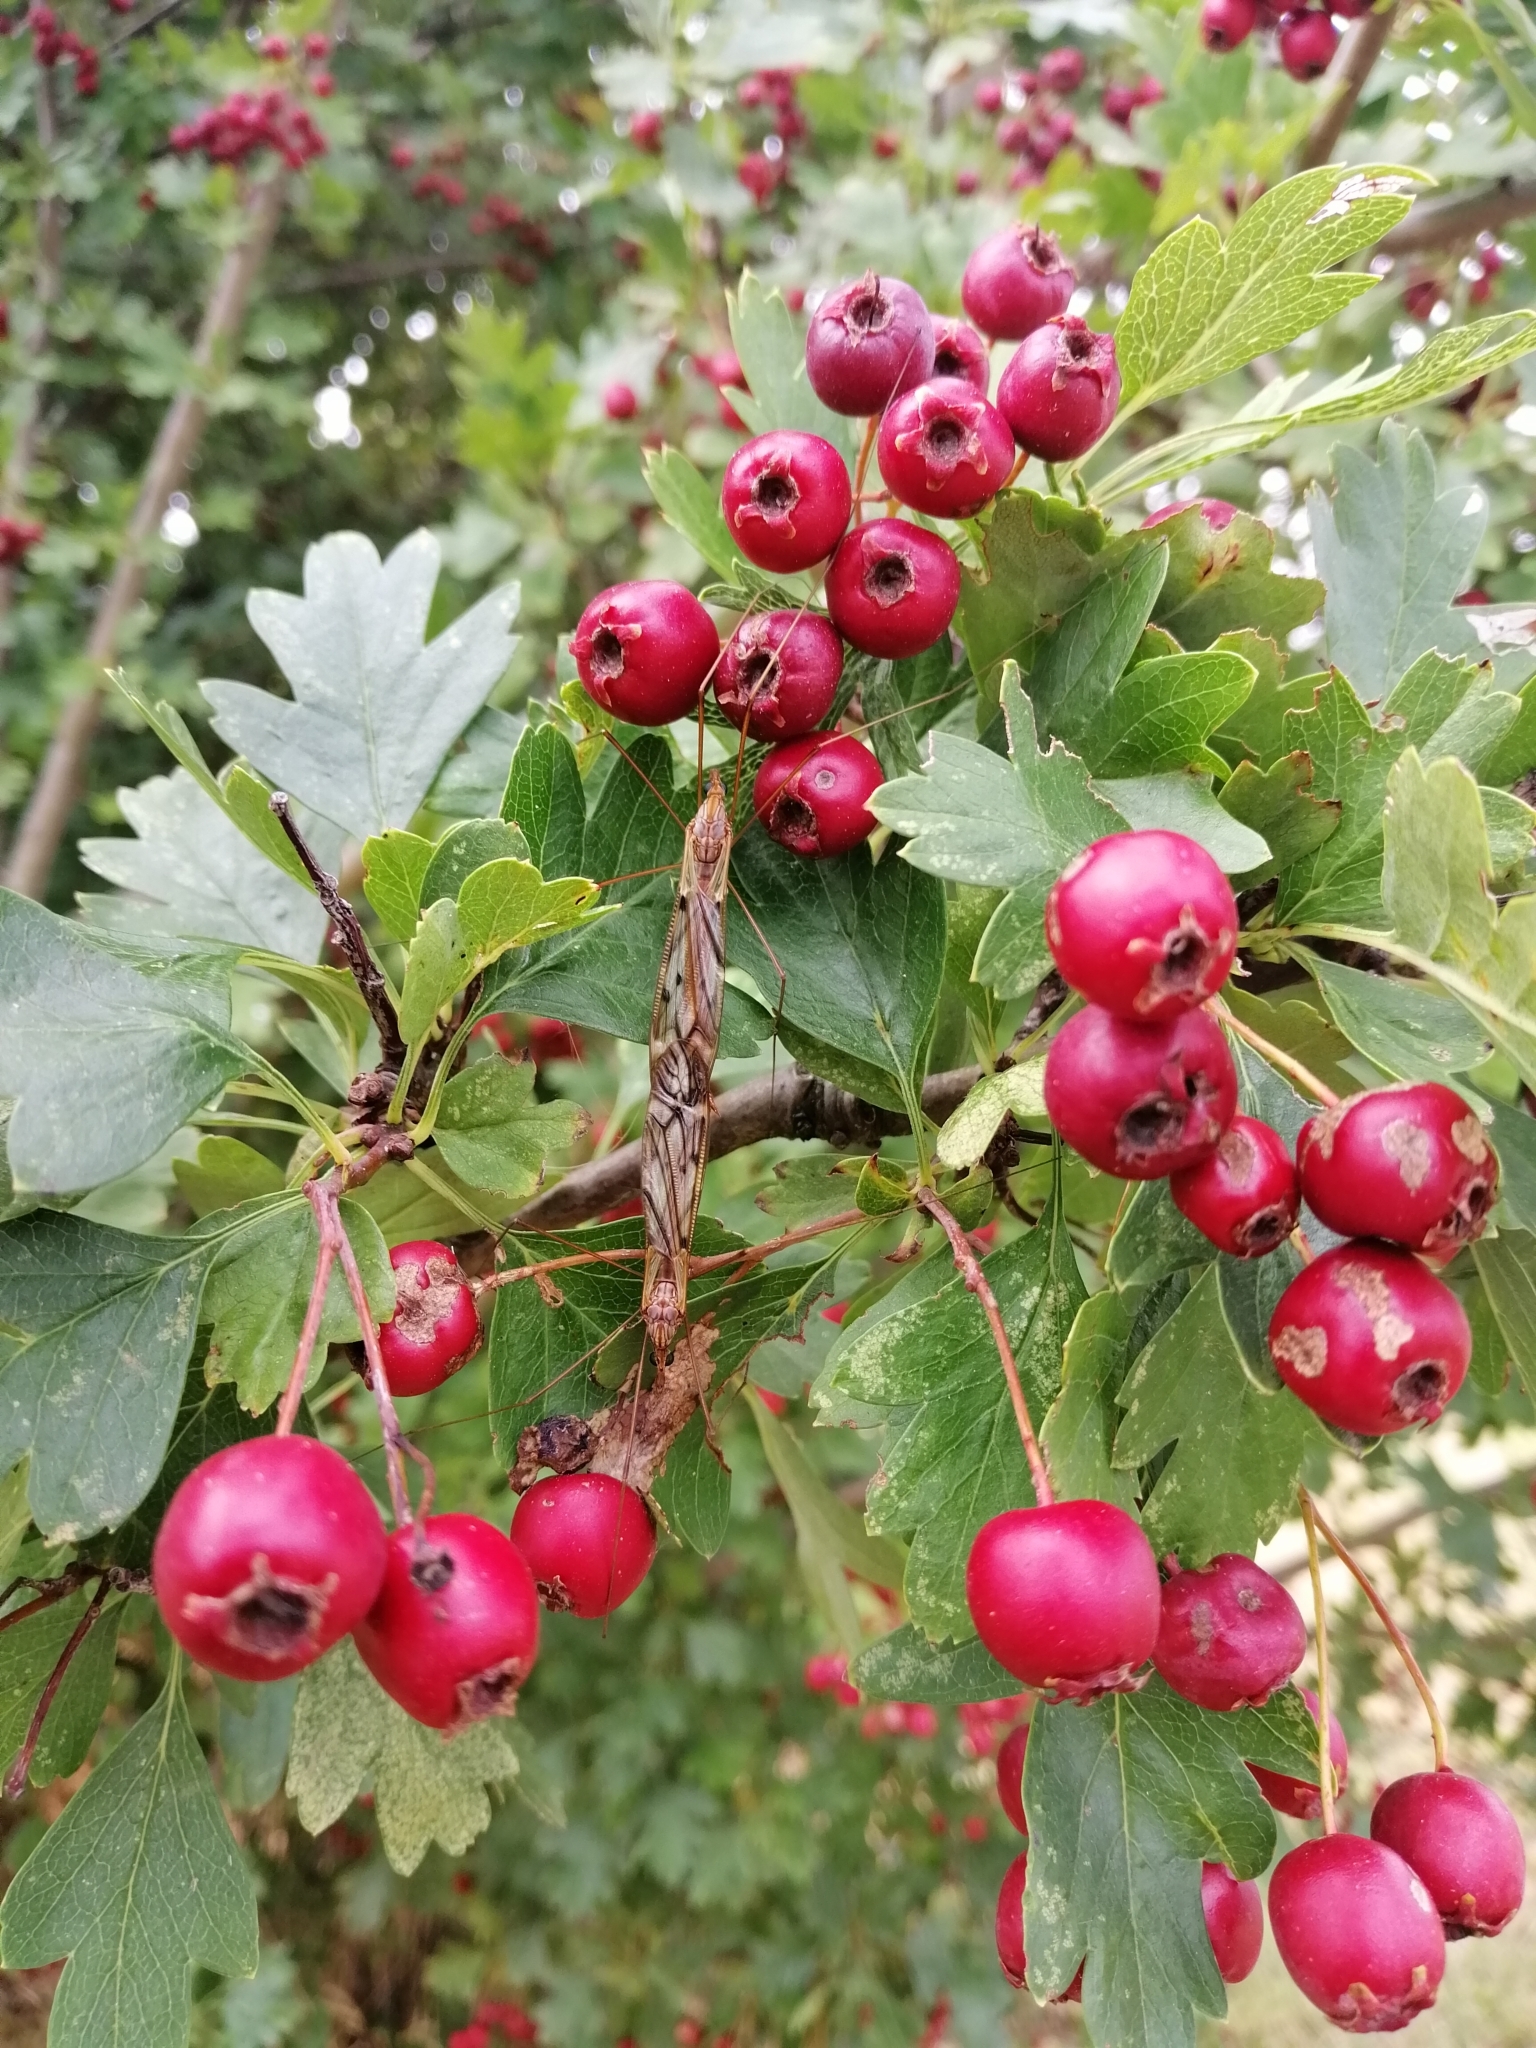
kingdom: Animalia
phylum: Arthropoda
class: Insecta
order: Diptera
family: Tipulidae
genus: Zelandotipula
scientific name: Zelandotipula novarae
